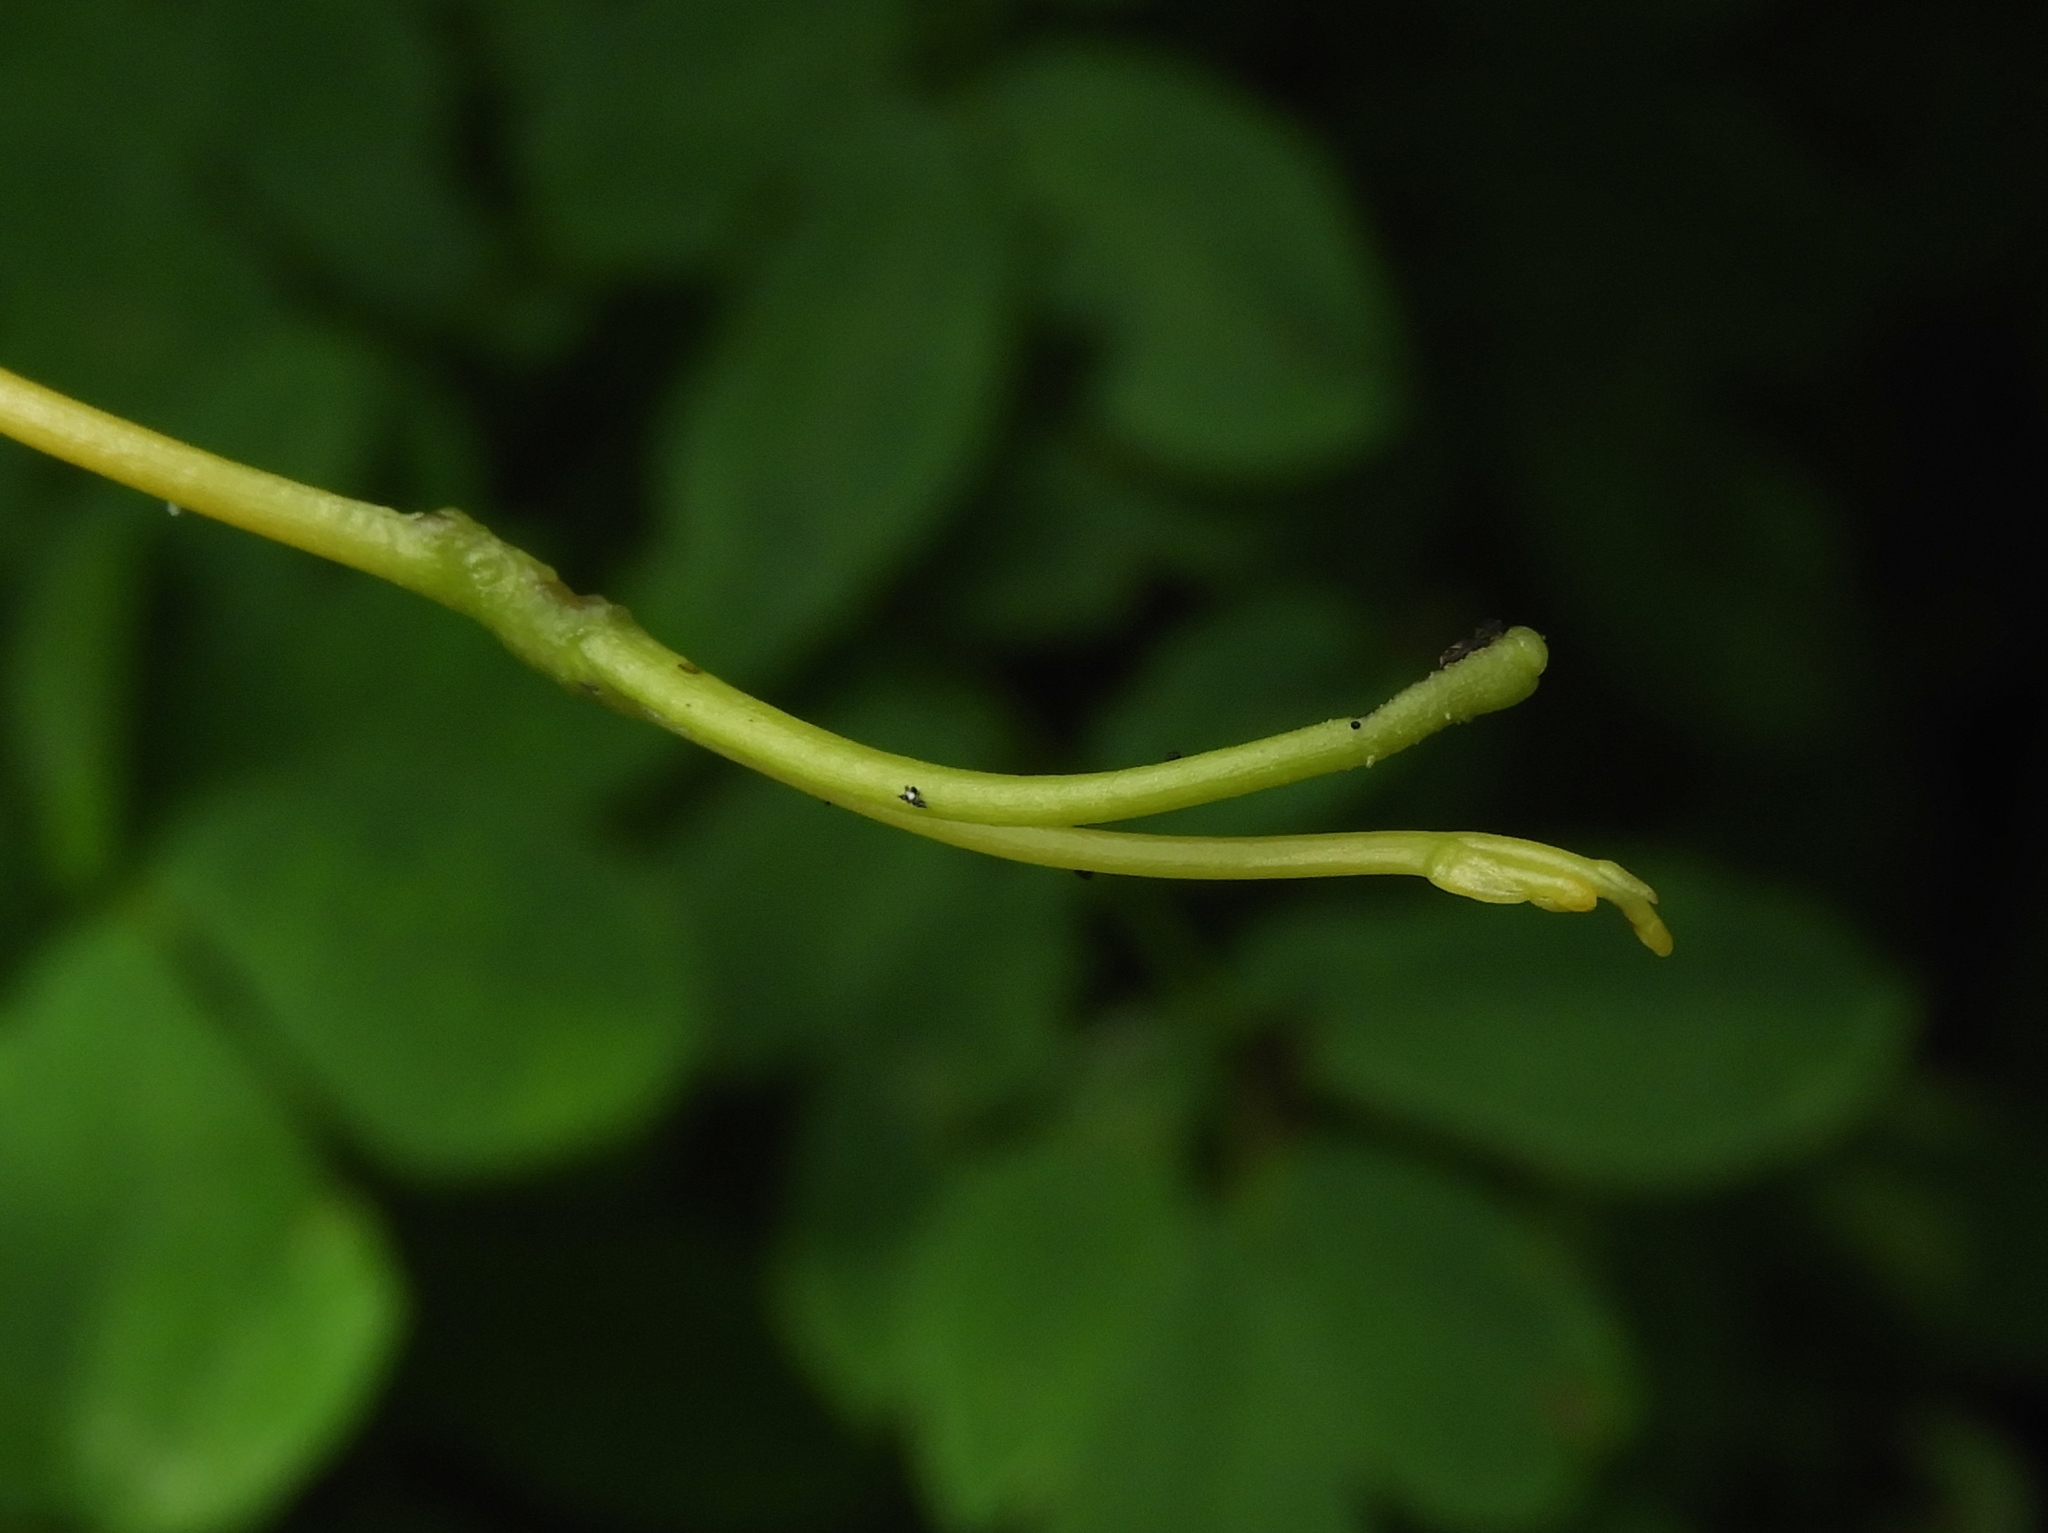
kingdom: Plantae
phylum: Tracheophyta
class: Magnoliopsida
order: Solanales
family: Convolvulaceae
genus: Cuscuta
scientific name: Cuscuta
